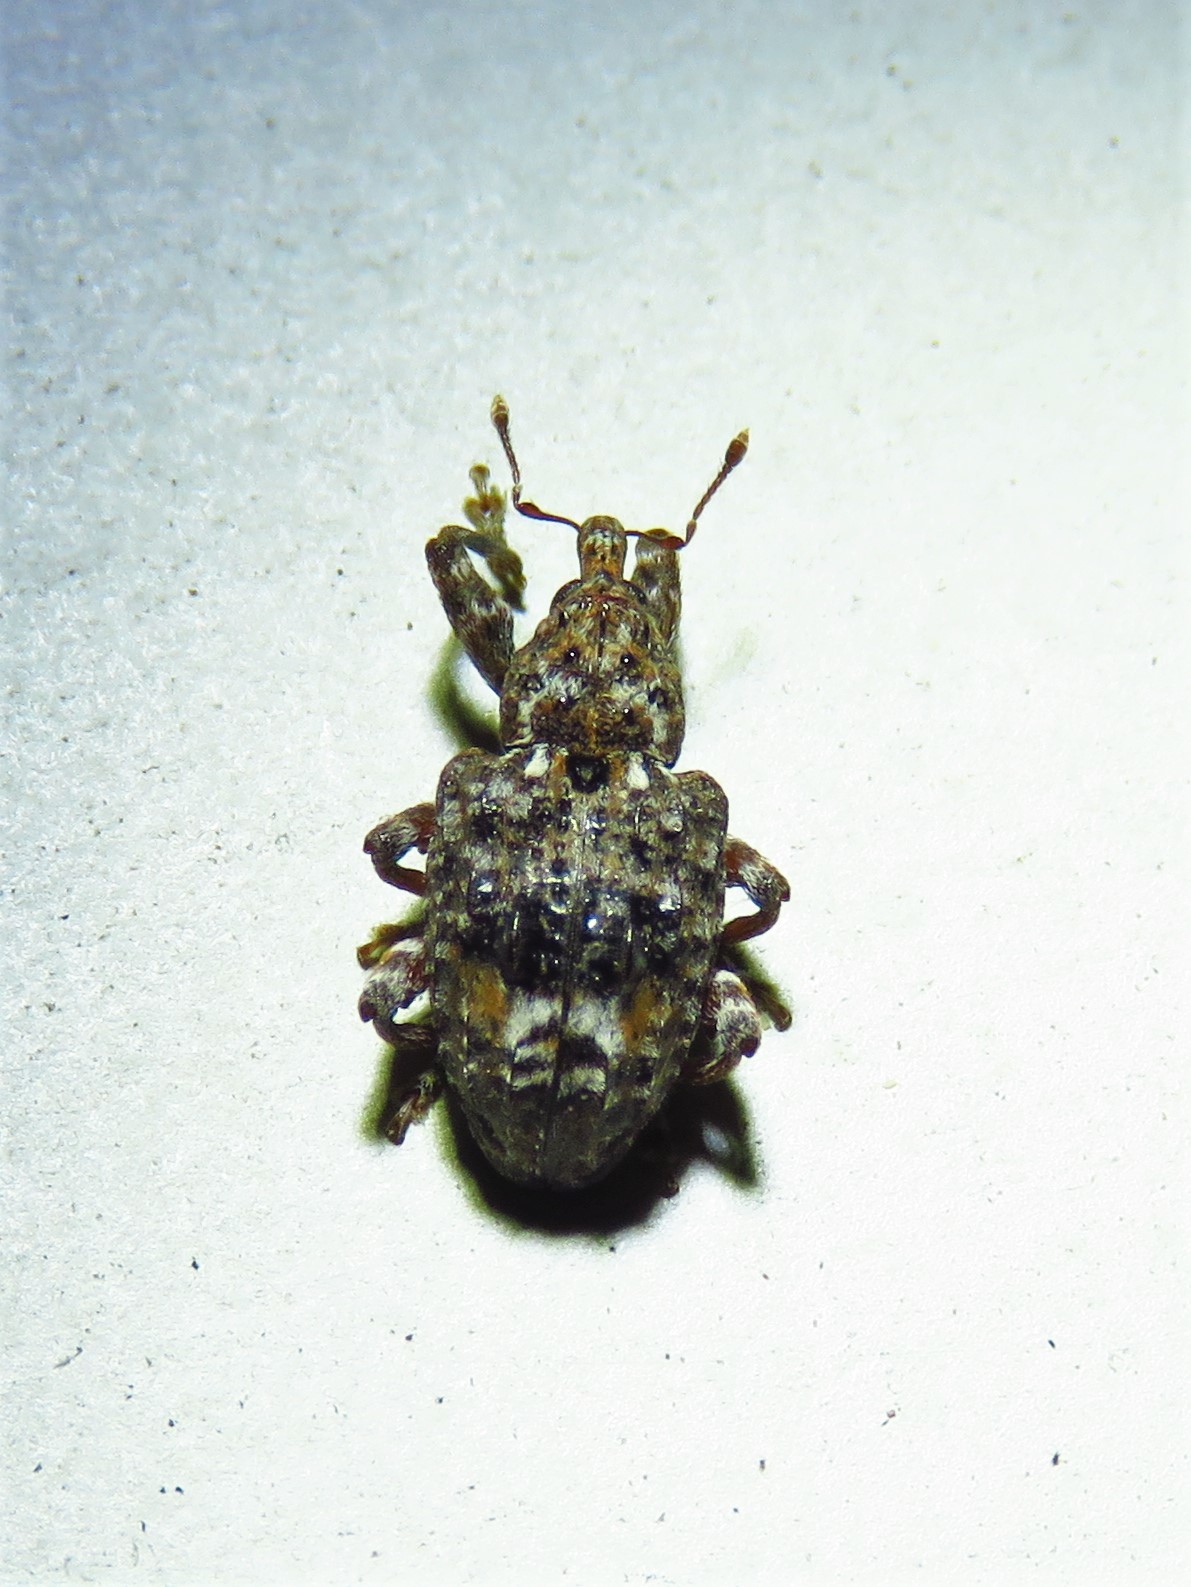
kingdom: Animalia
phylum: Arthropoda
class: Insecta
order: Coleoptera
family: Curculionidae
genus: Conotrachelus
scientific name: Conotrachelus nenuphar
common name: Plum curculio
